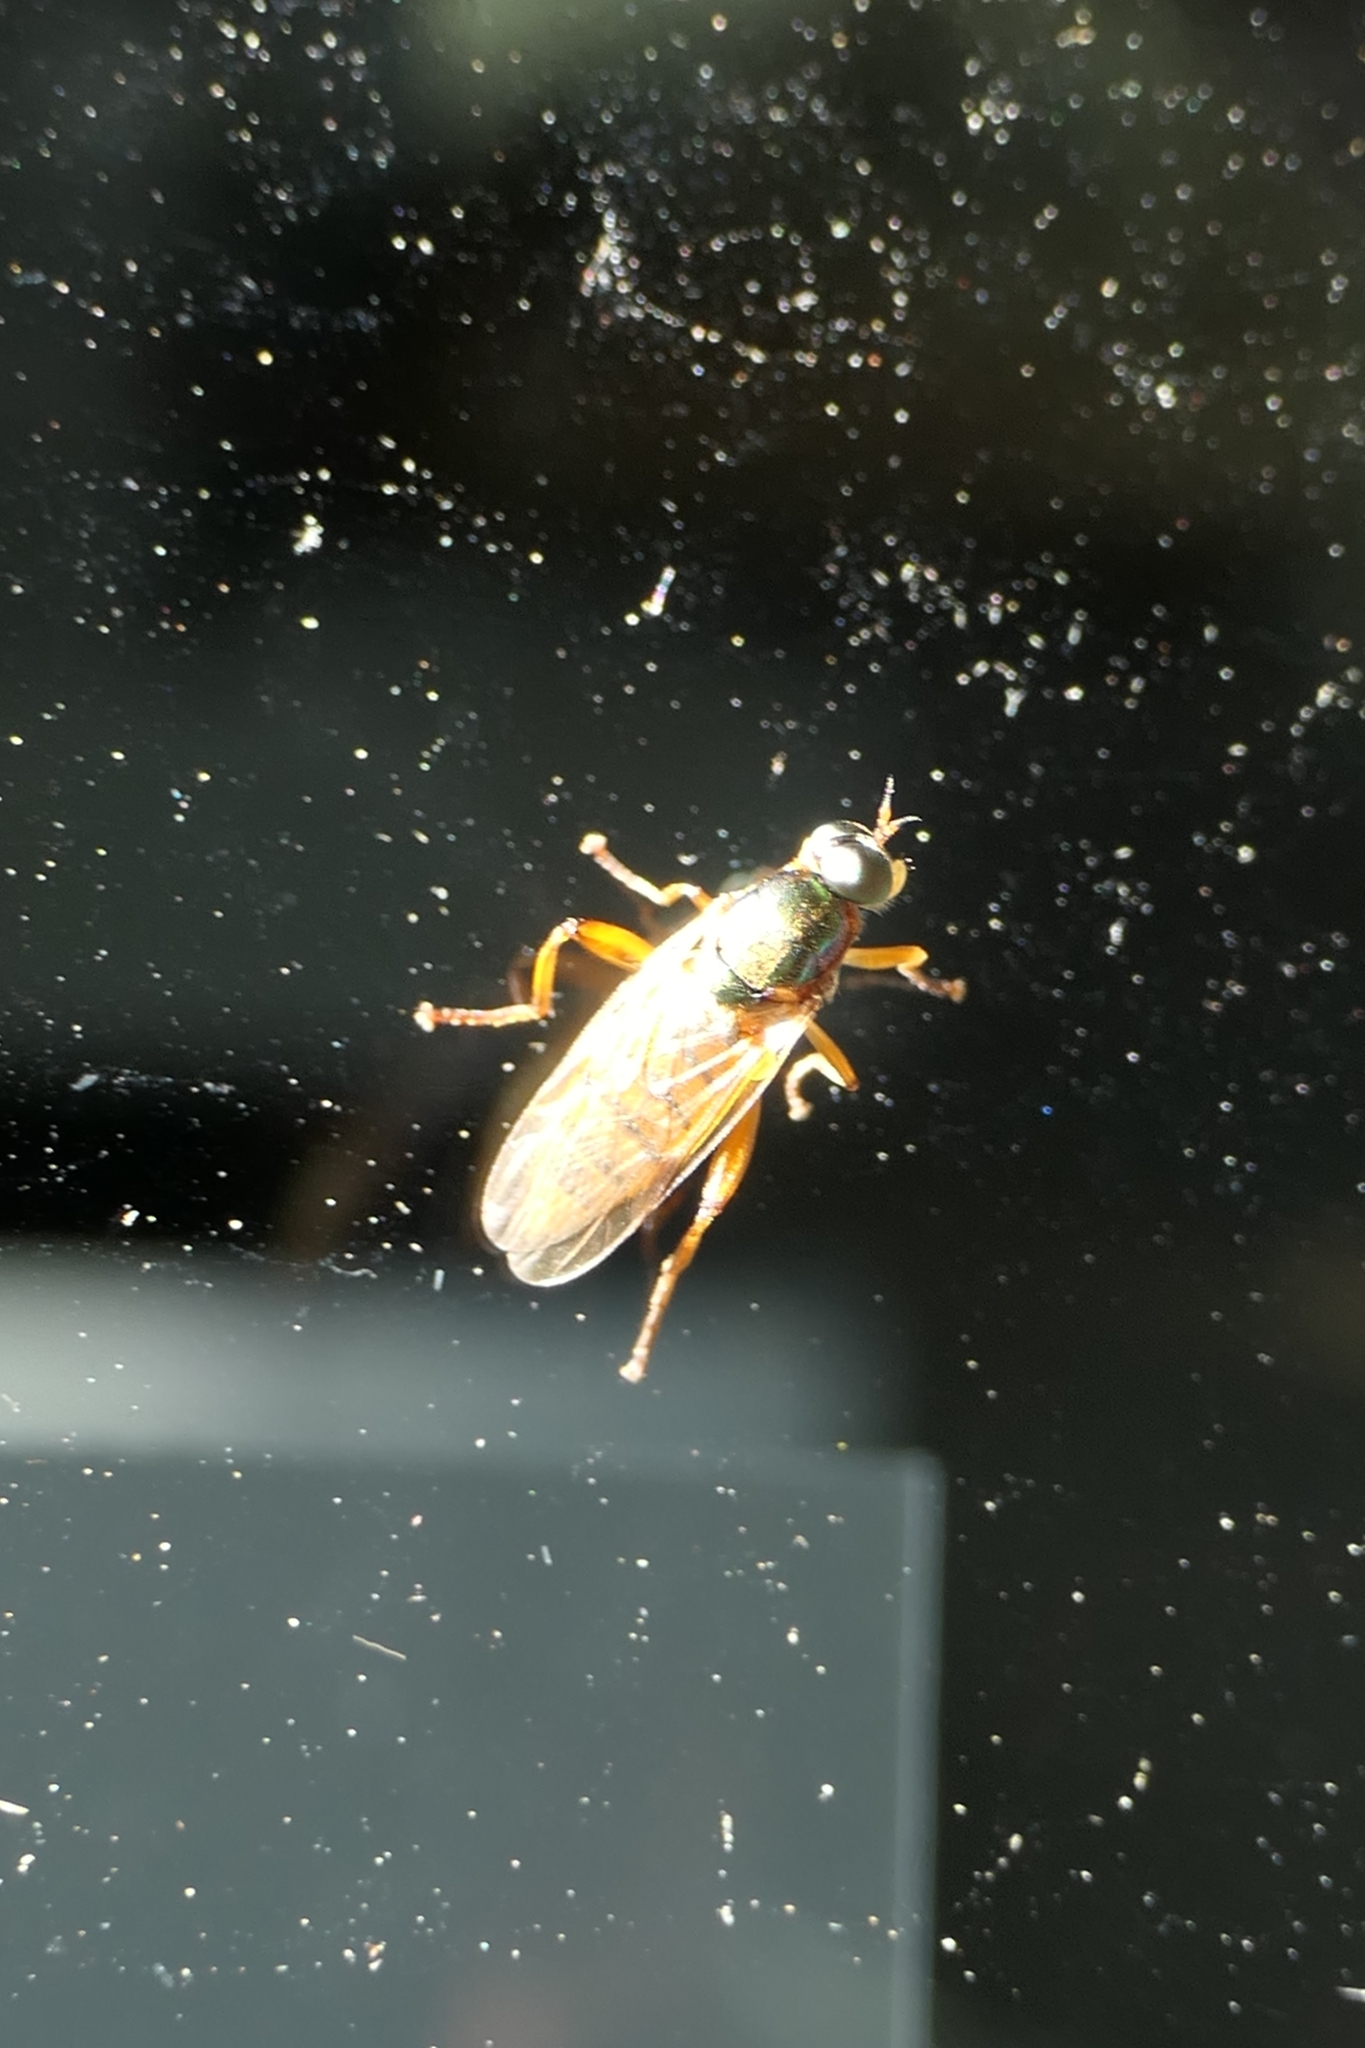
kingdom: Animalia
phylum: Arthropoda
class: Insecta
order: Diptera
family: Stratiomyidae
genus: Neactina
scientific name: Neactina opposita
